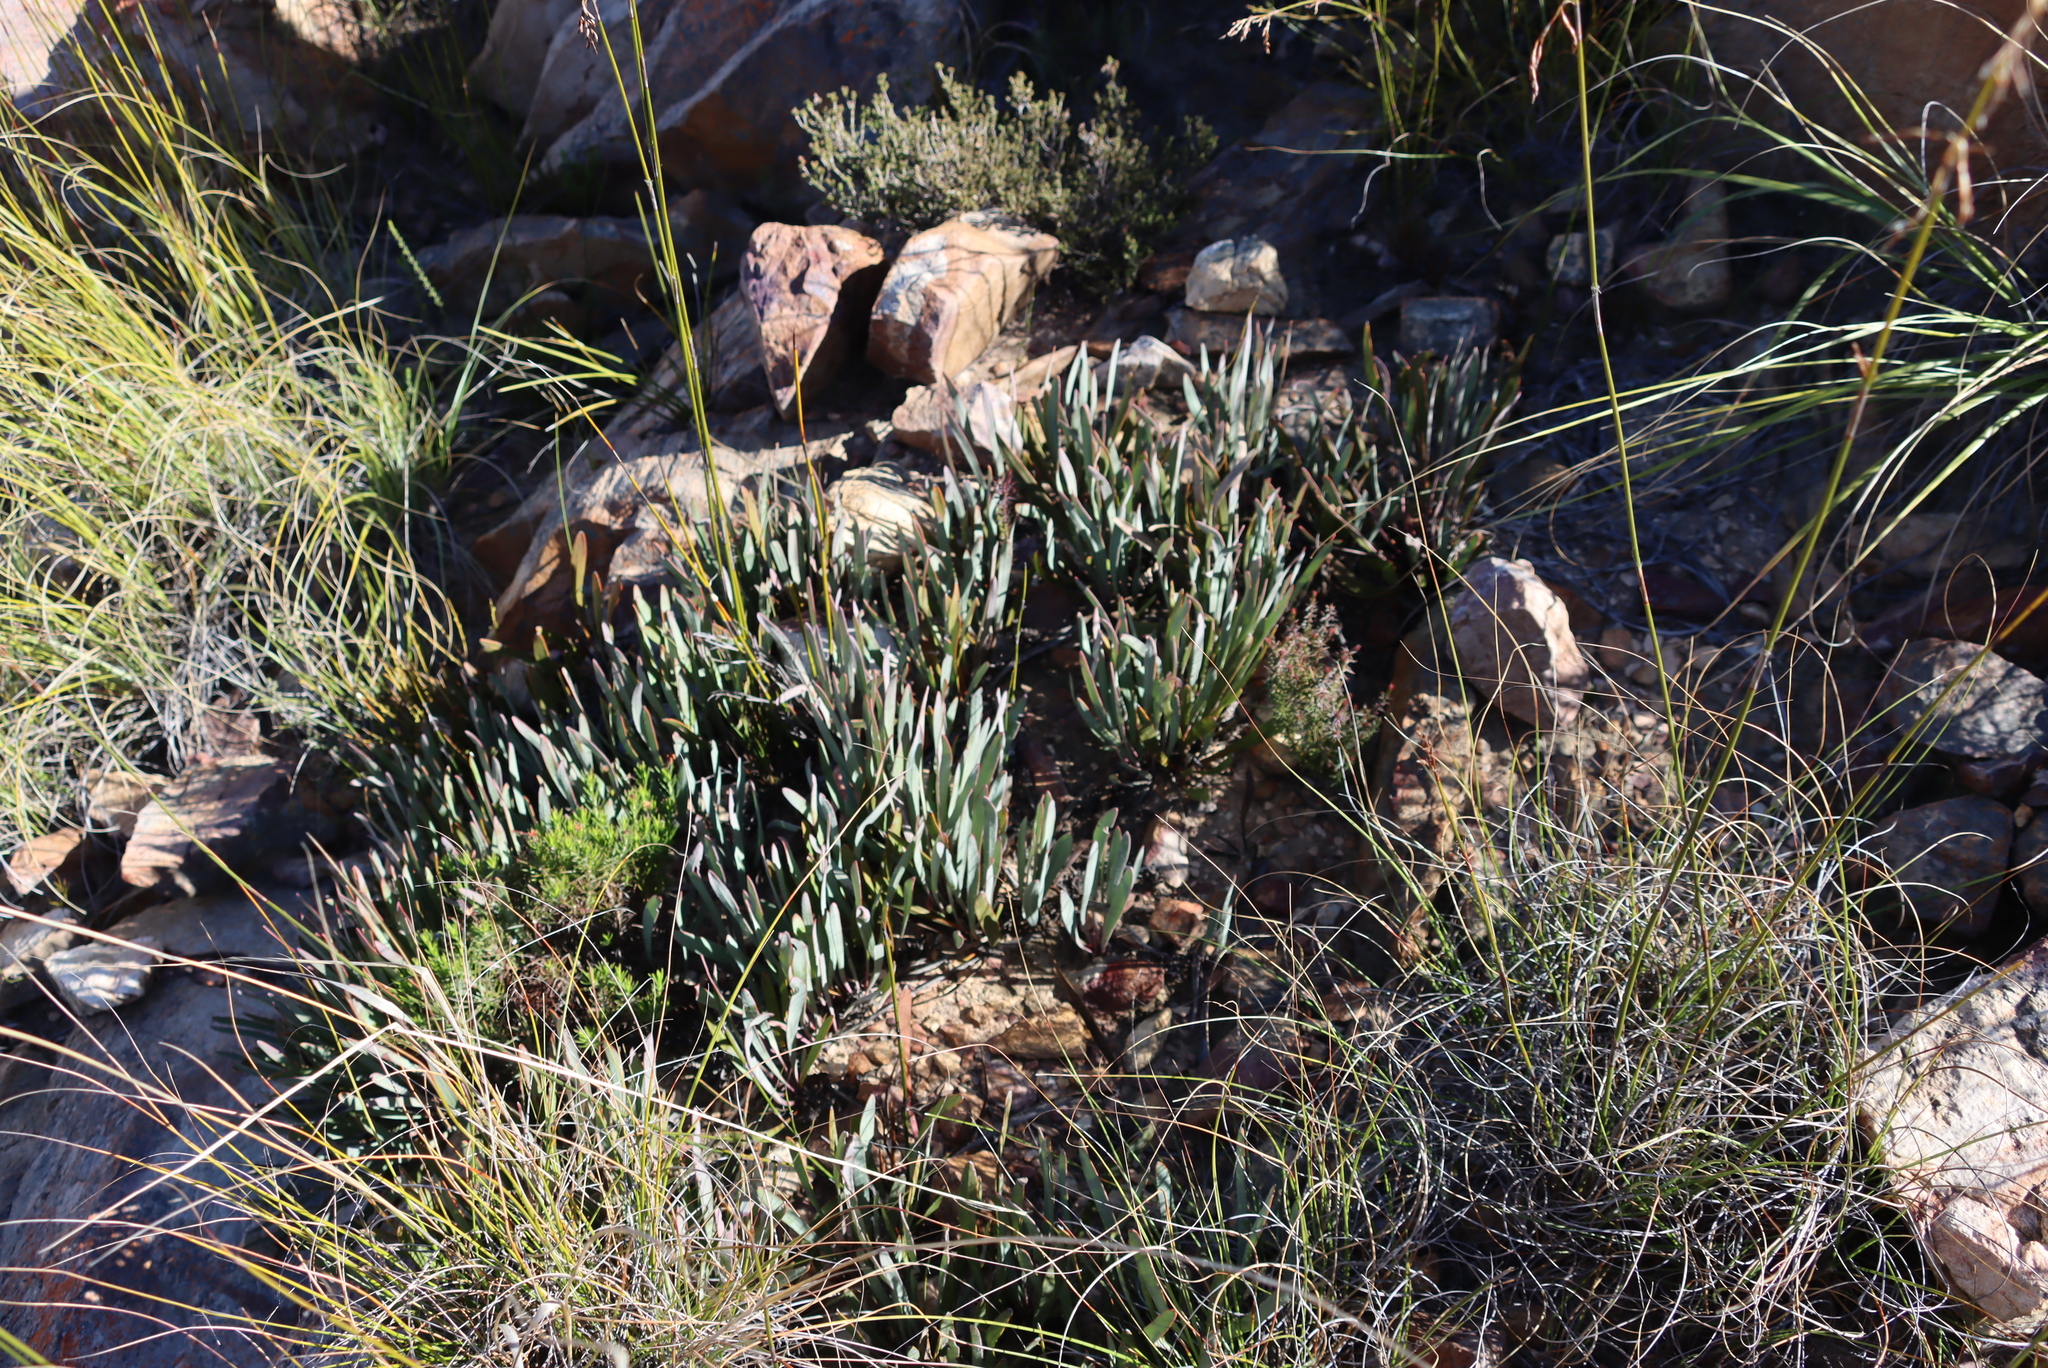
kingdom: Plantae
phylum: Tracheophyta
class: Magnoliopsida
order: Proteales
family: Proteaceae
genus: Protea
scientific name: Protea vogtsiae
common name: Kouga sugarbush
